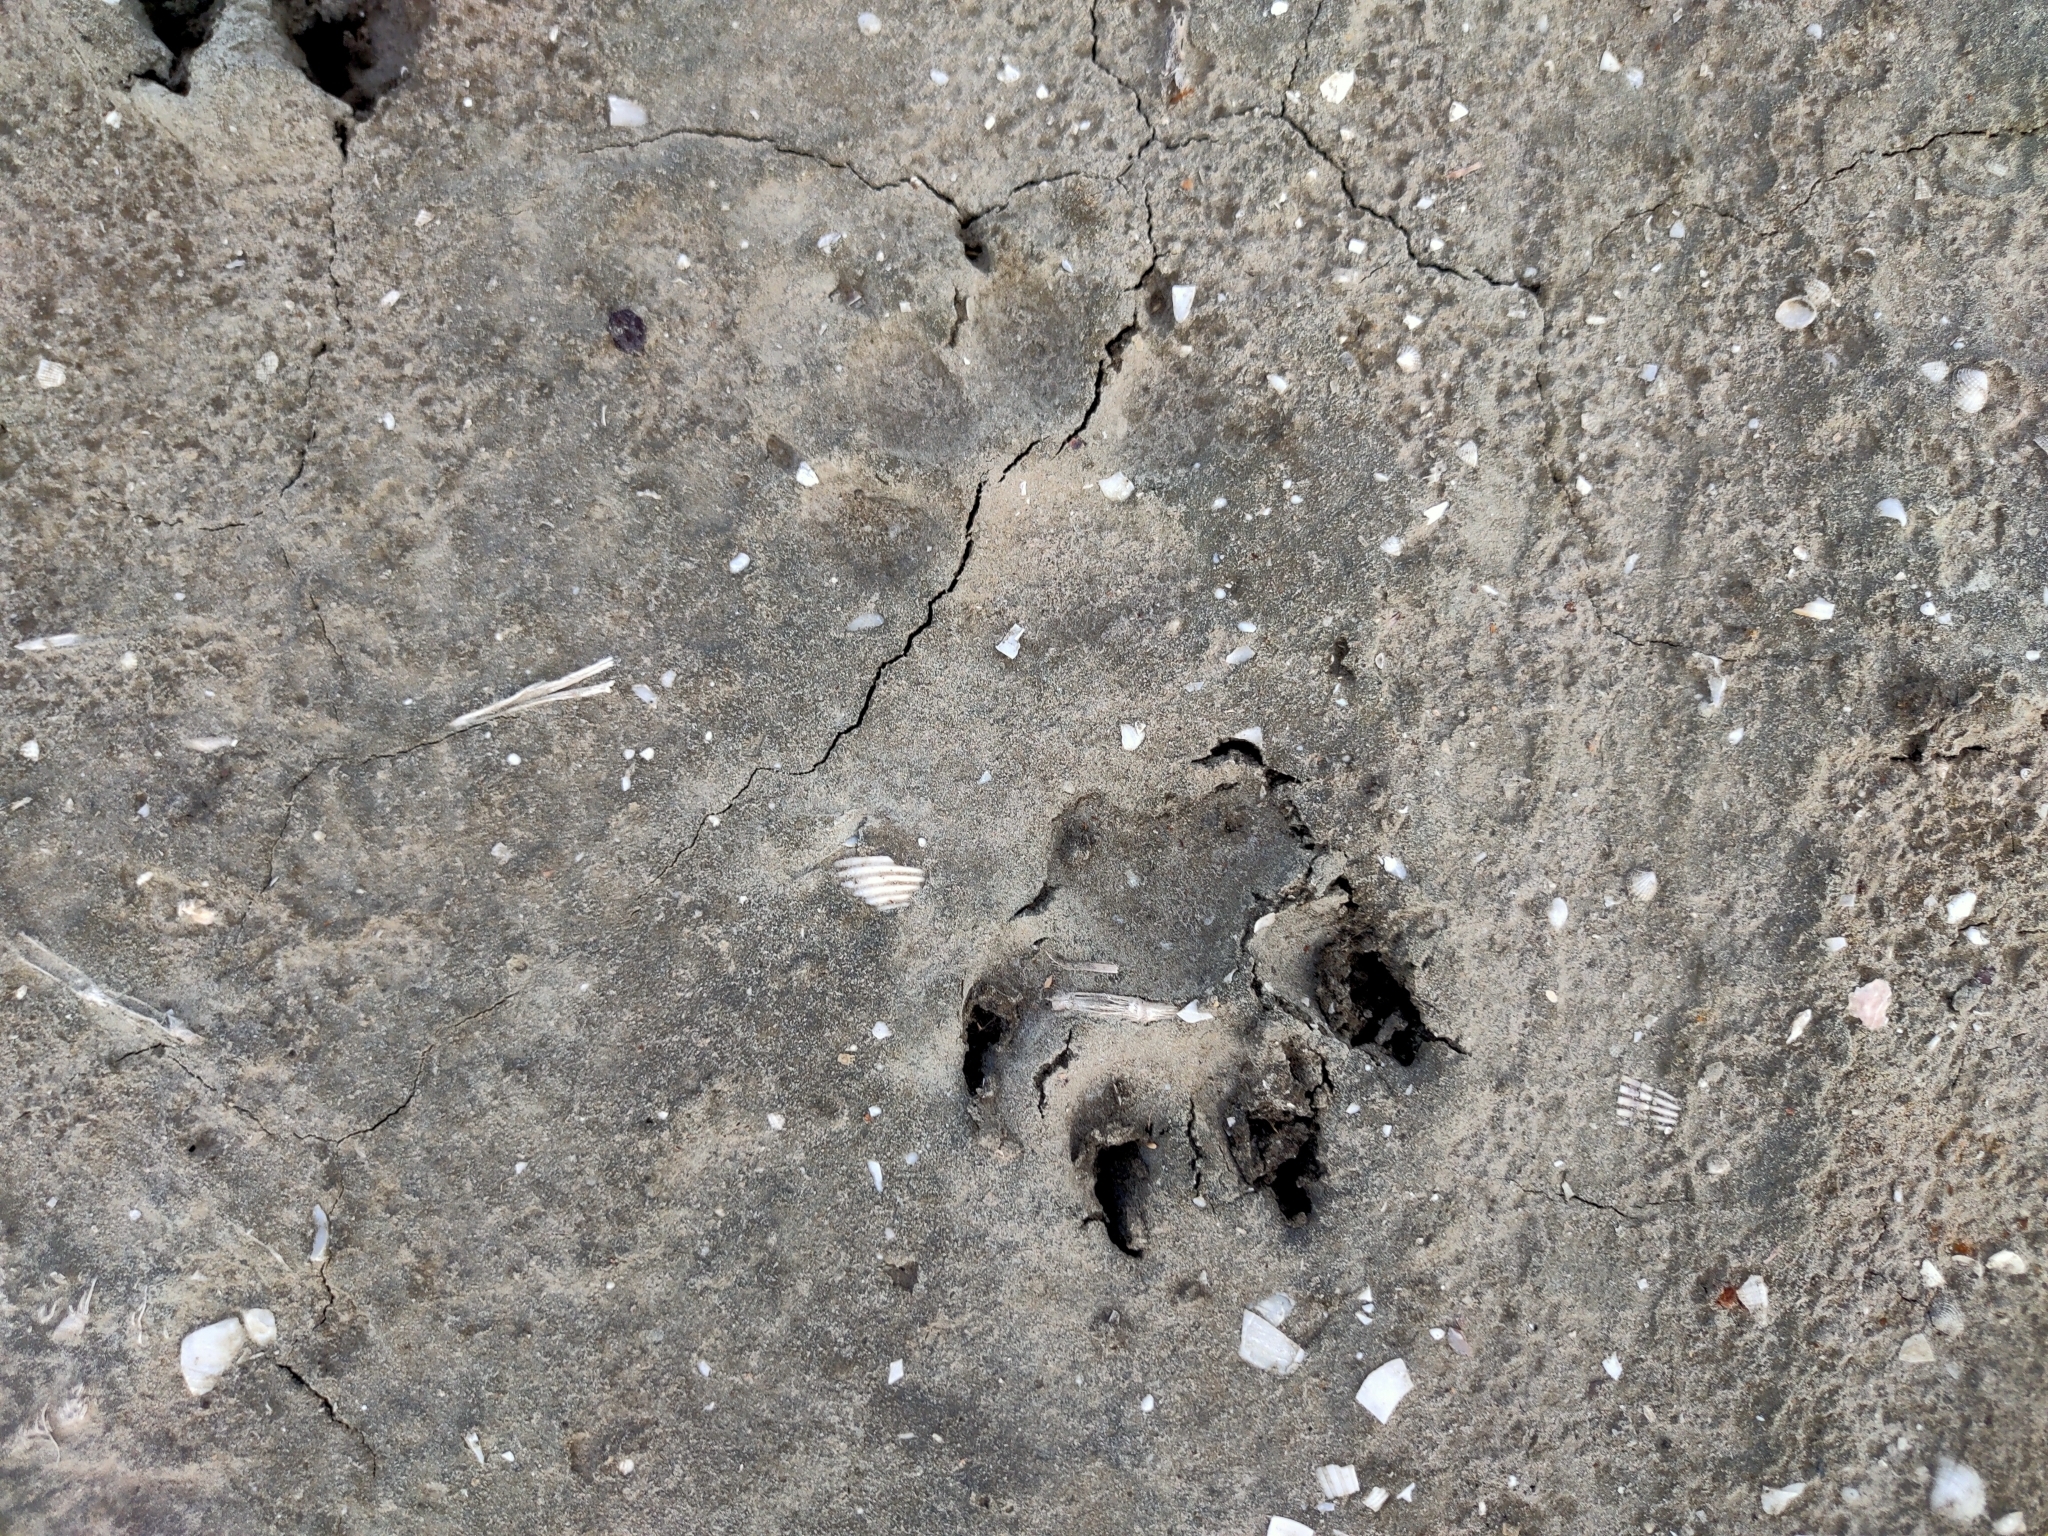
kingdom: Animalia
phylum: Chordata
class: Mammalia
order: Carnivora
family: Canidae
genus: Canis
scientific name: Canis lupus
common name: Gray wolf
